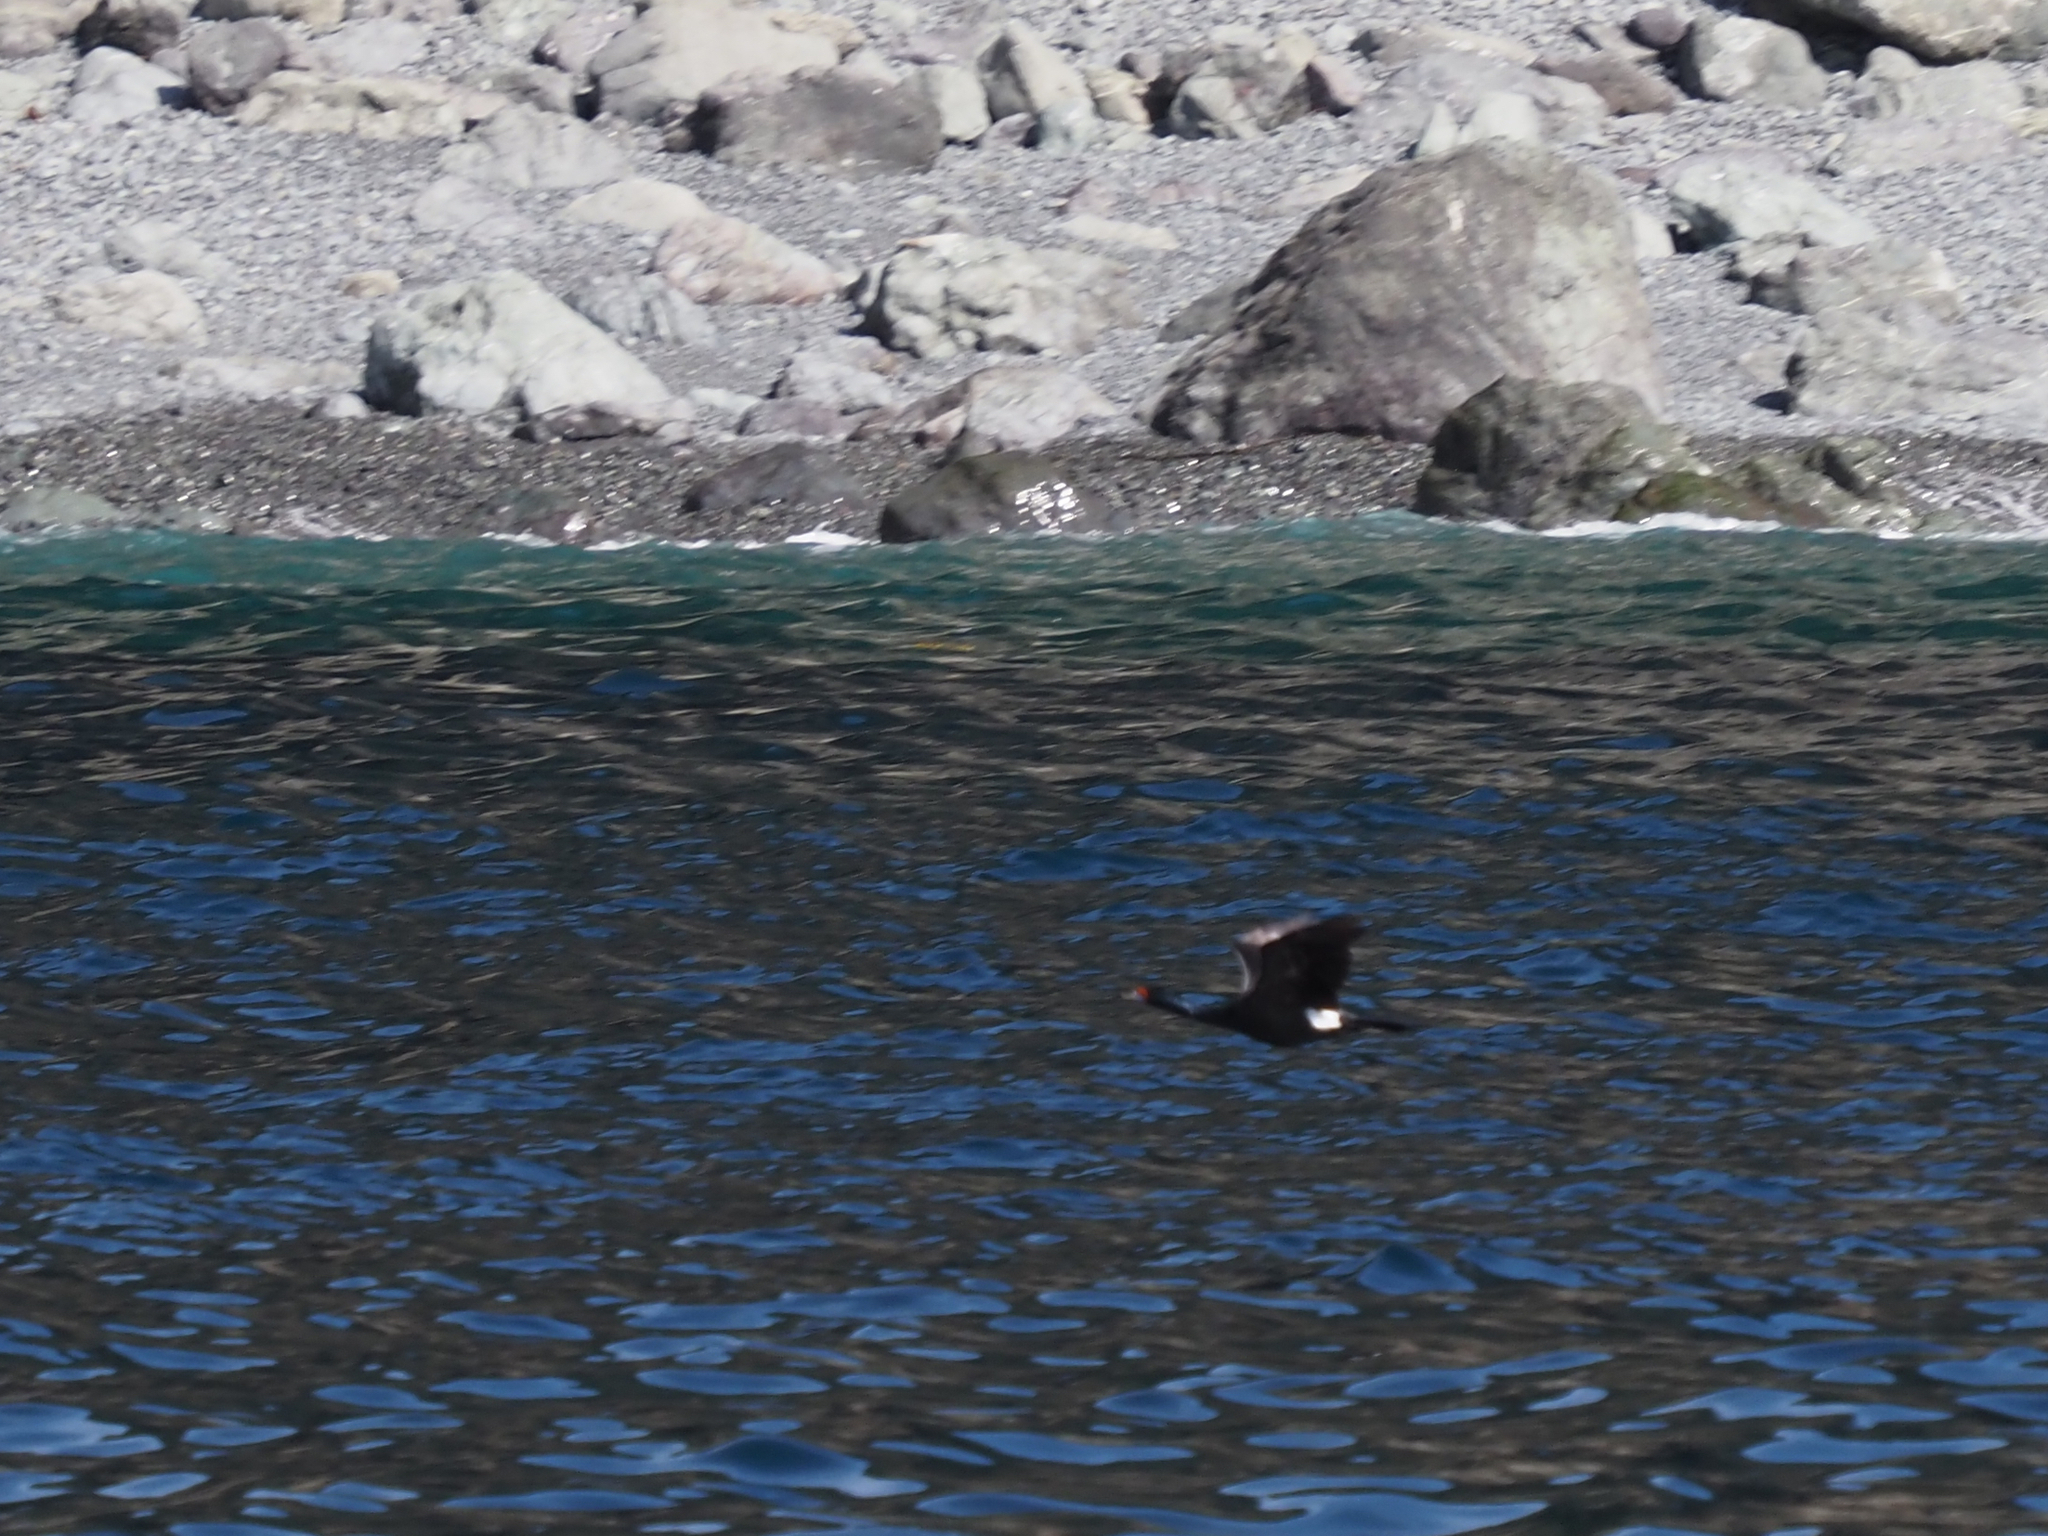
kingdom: Animalia
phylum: Chordata
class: Aves
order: Suliformes
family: Phalacrocoracidae
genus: Phalacrocorax
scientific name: Phalacrocorax urile
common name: Red-faced cormorant
